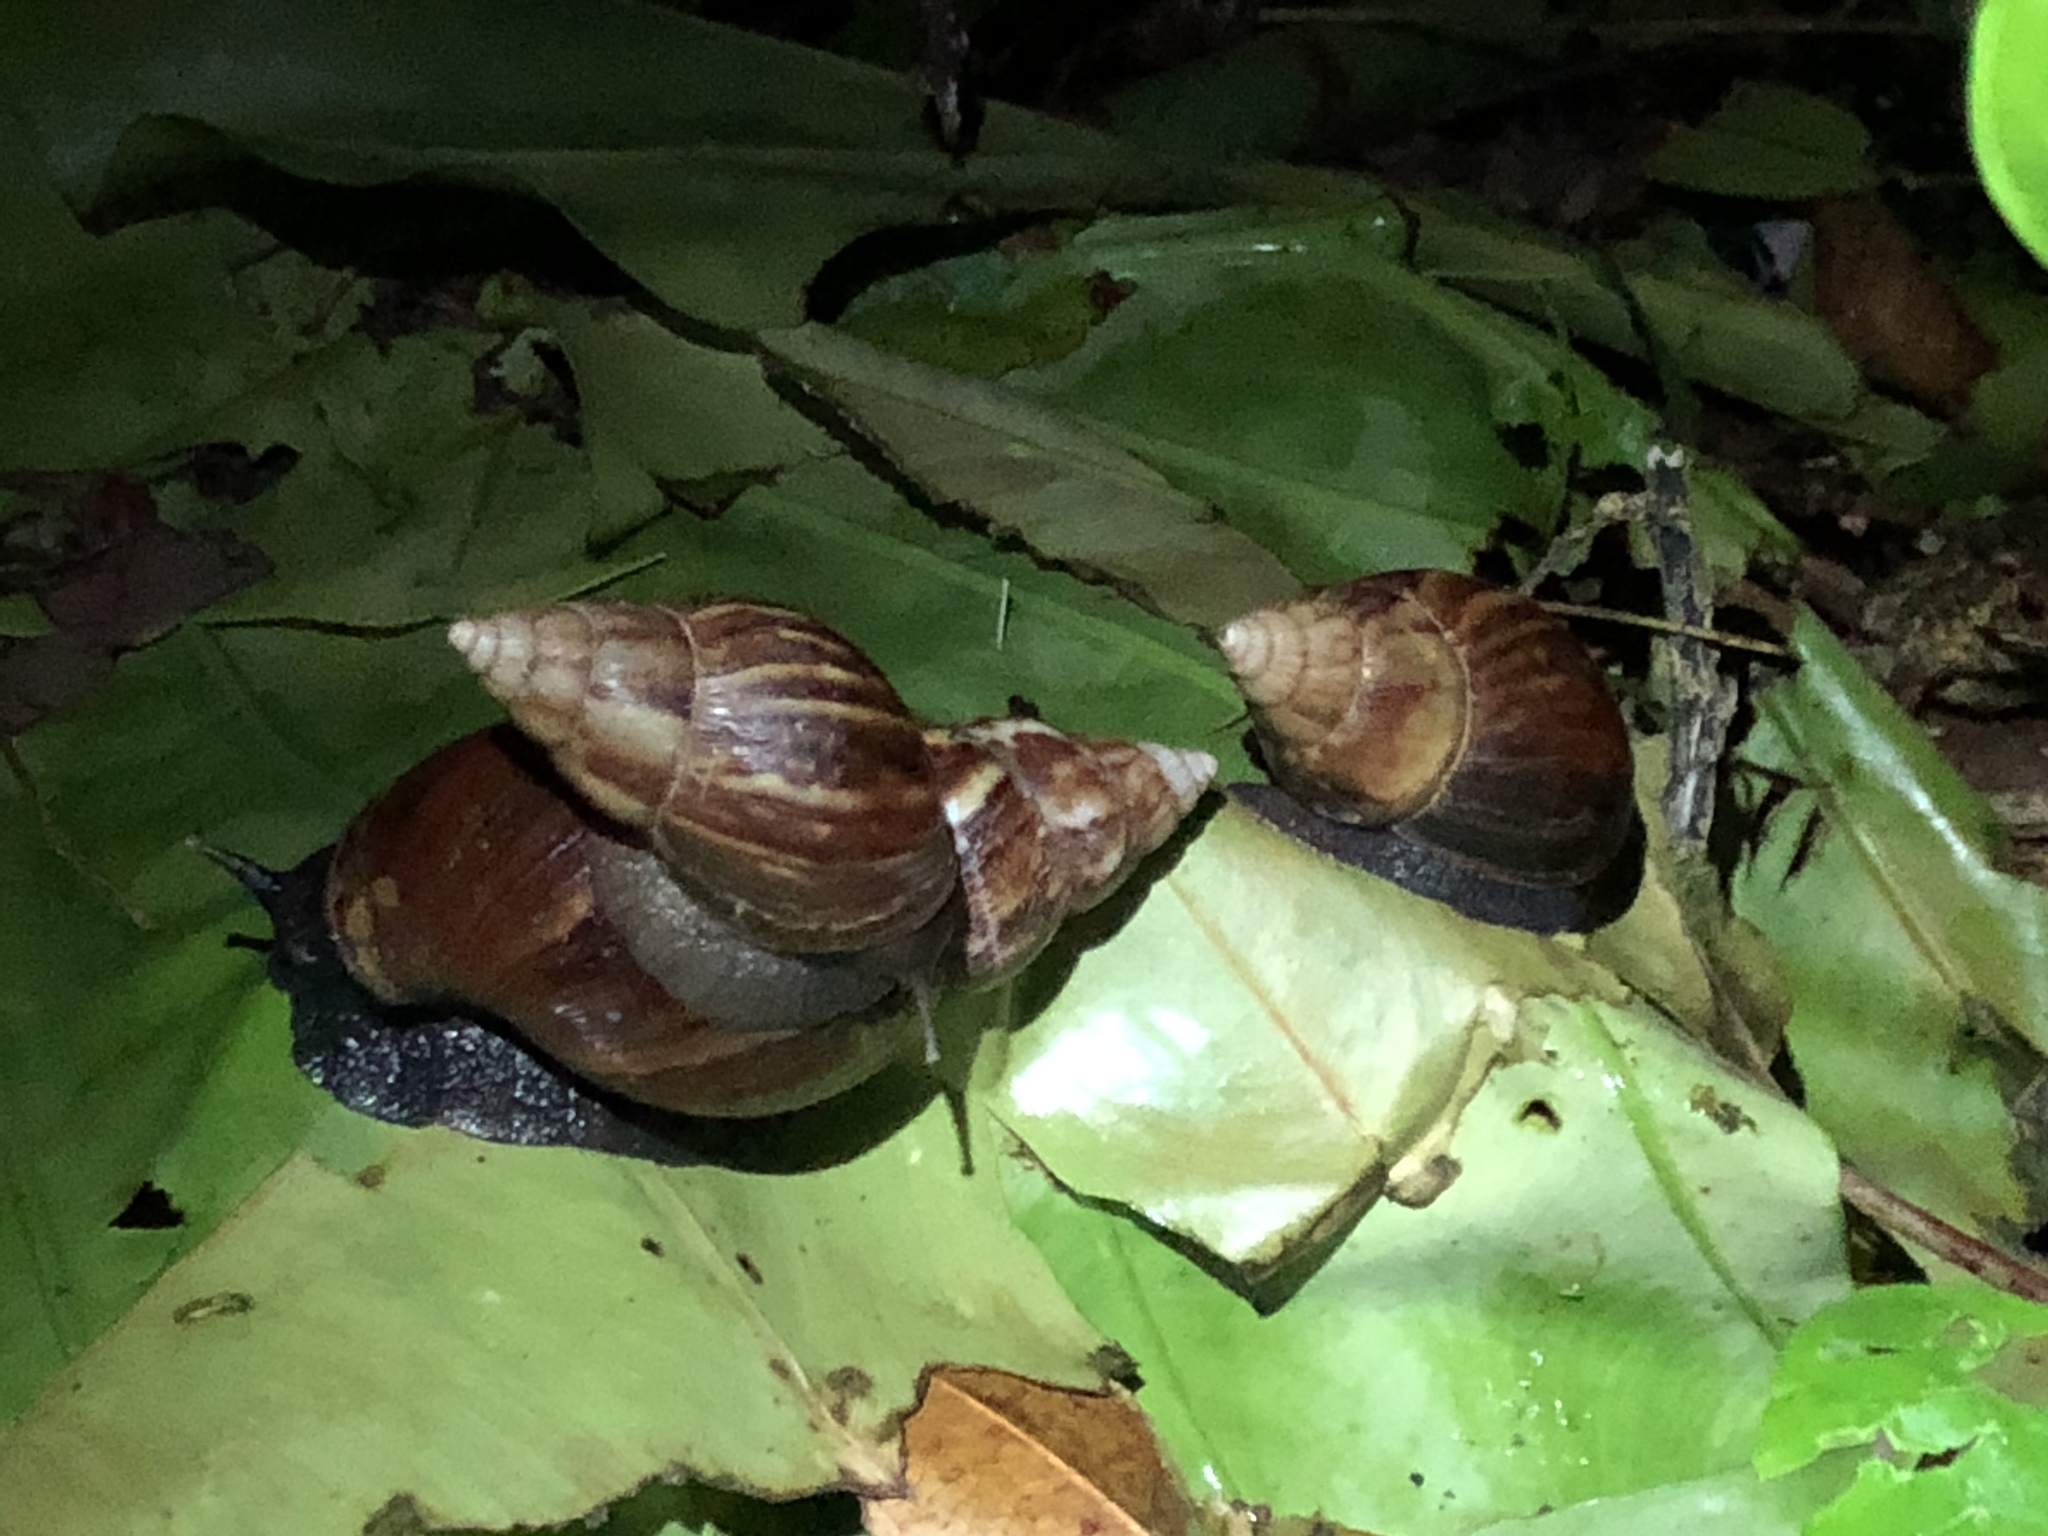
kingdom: Animalia
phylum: Mollusca
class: Gastropoda
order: Stylommatophora
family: Achatinidae
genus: Lissachatina
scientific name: Lissachatina fulica
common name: Giant african snail
